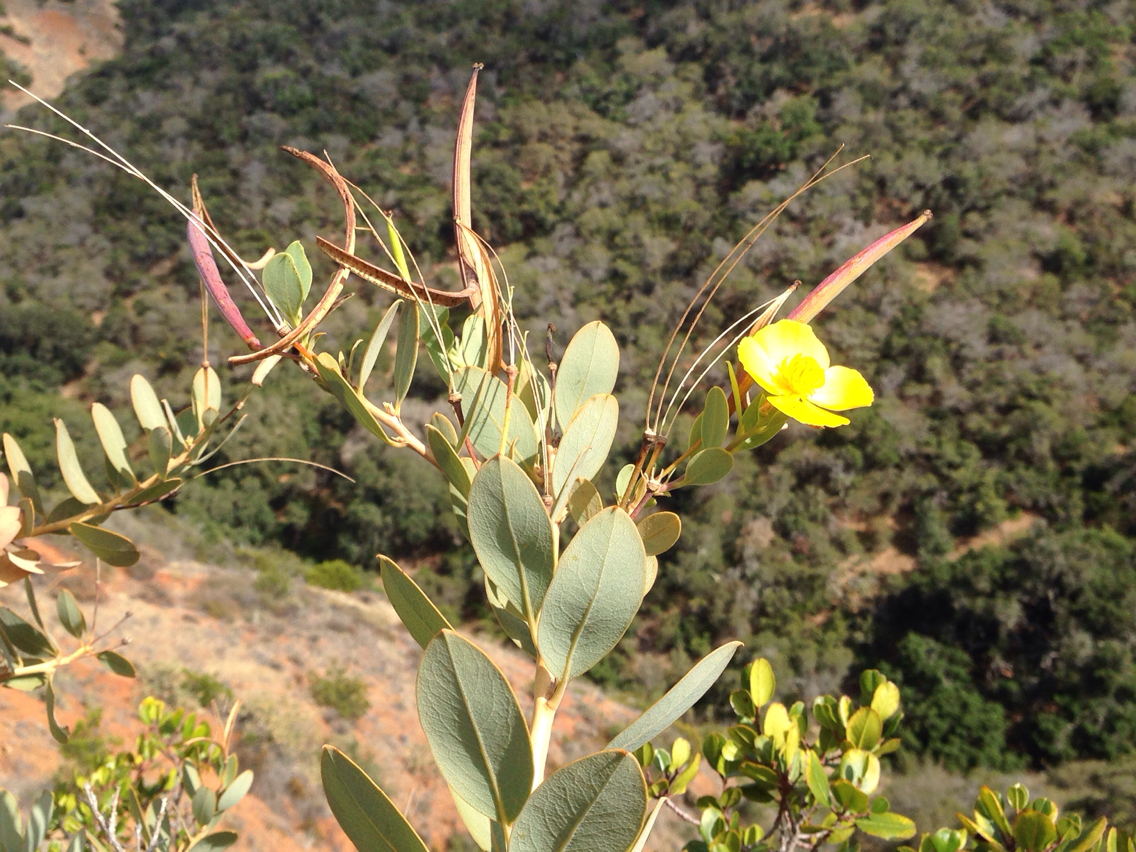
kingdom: Plantae
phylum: Tracheophyta
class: Magnoliopsida
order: Ranunculales
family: Papaveraceae
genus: Dendromecon
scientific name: Dendromecon harfordii
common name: Island tree-poppy
